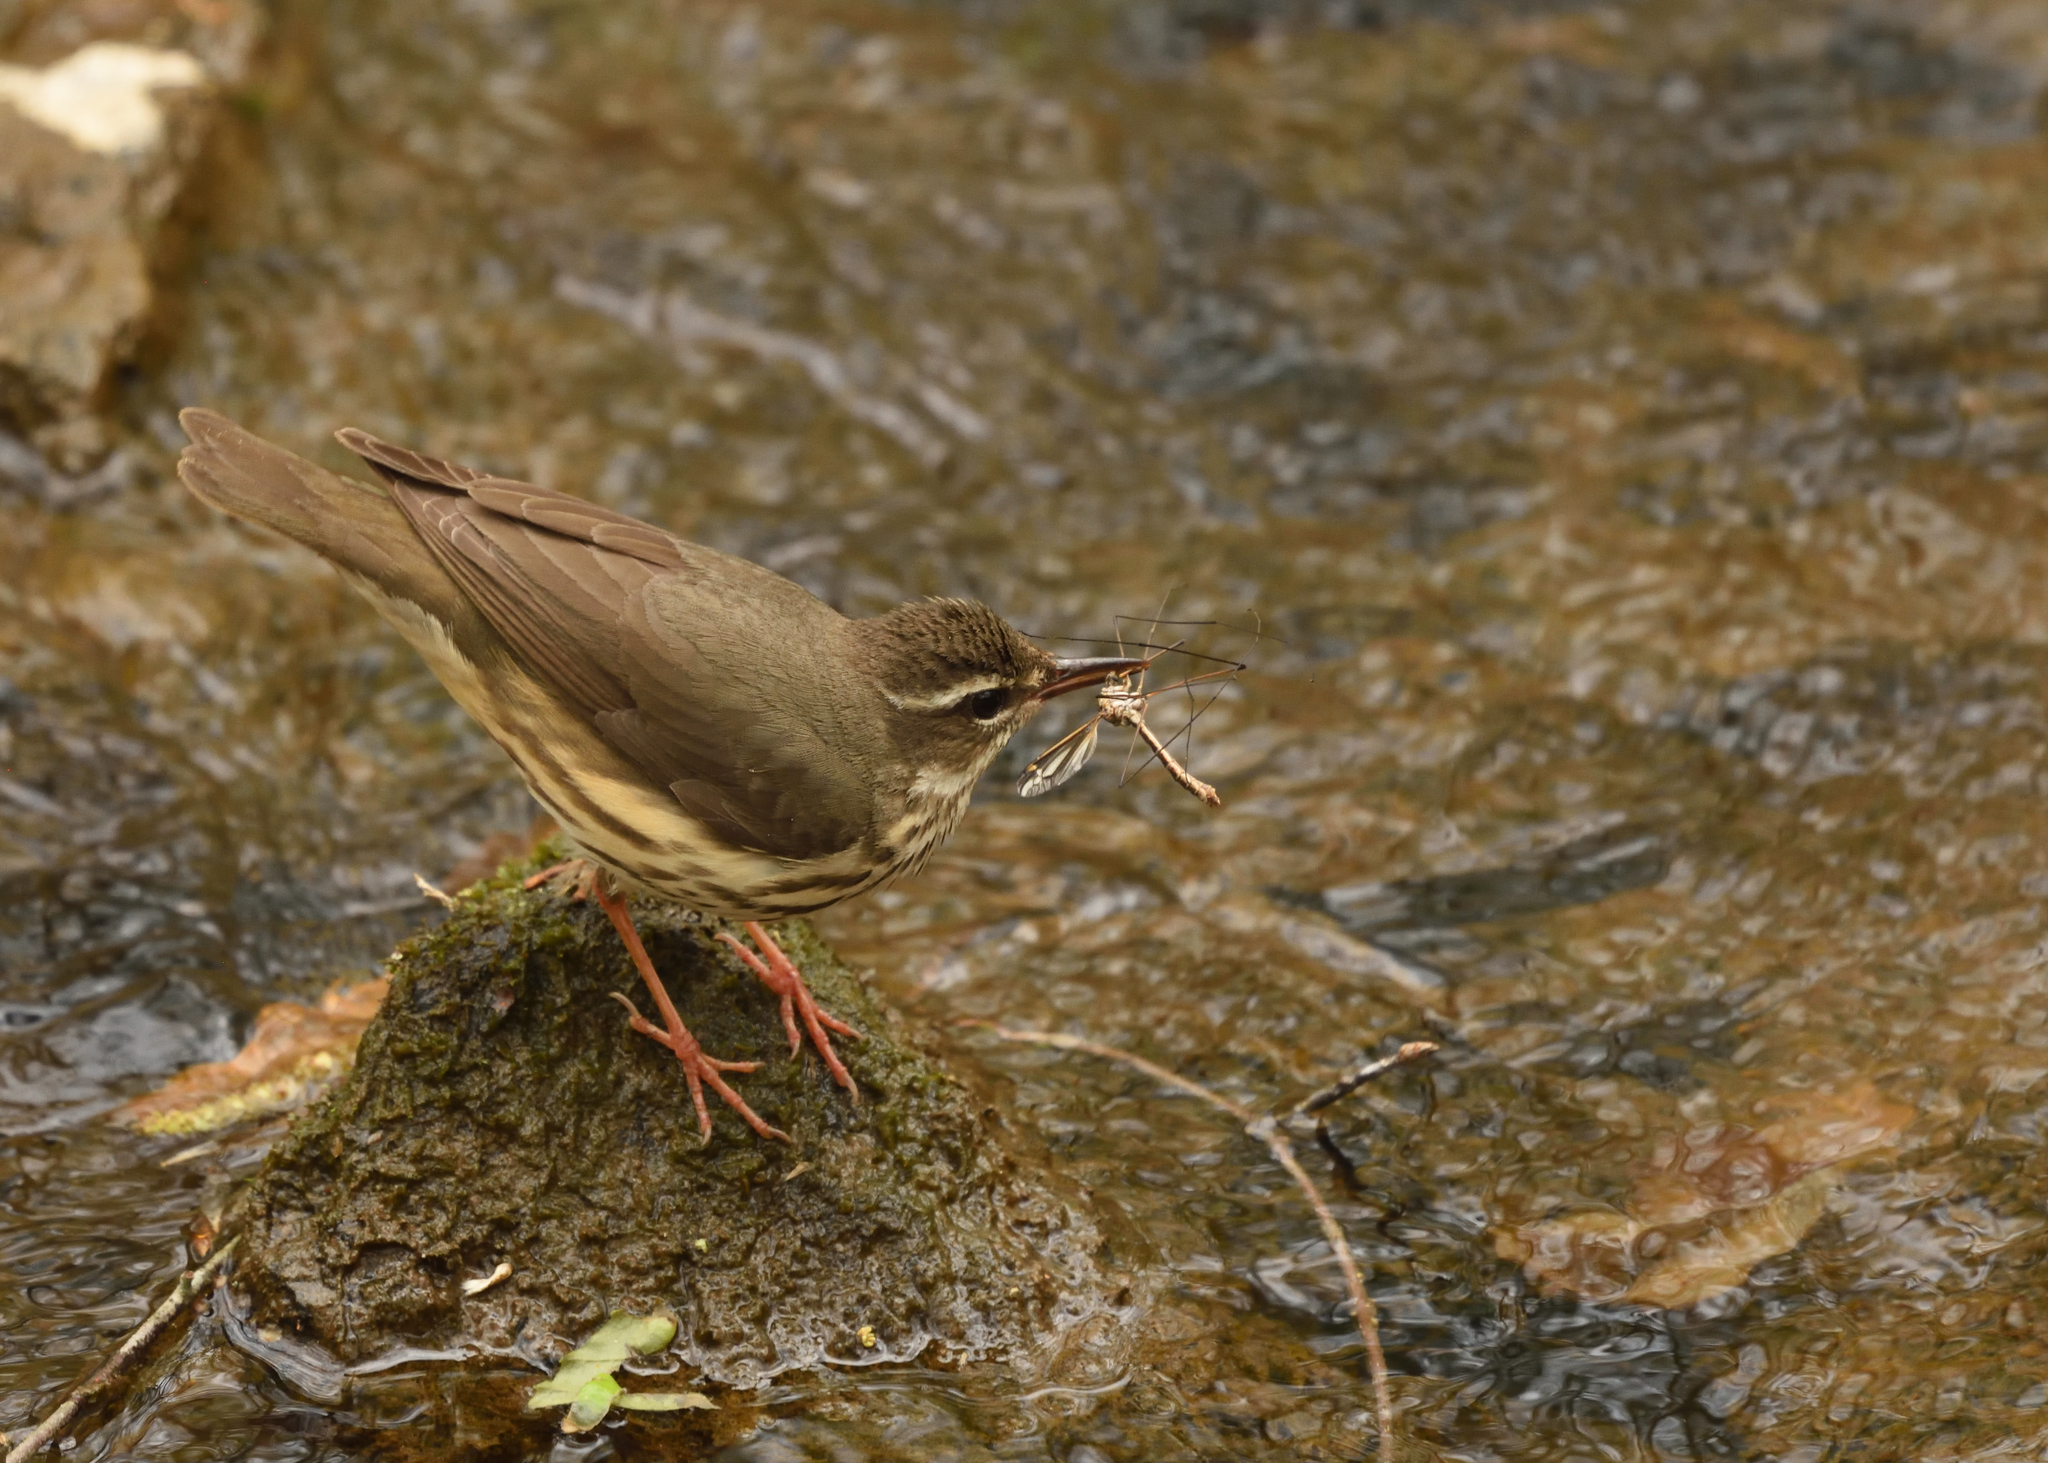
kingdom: Animalia
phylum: Chordata
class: Aves
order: Passeriformes
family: Parulidae
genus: Parkesia
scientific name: Parkesia motacilla
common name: Louisiana waterthrush
